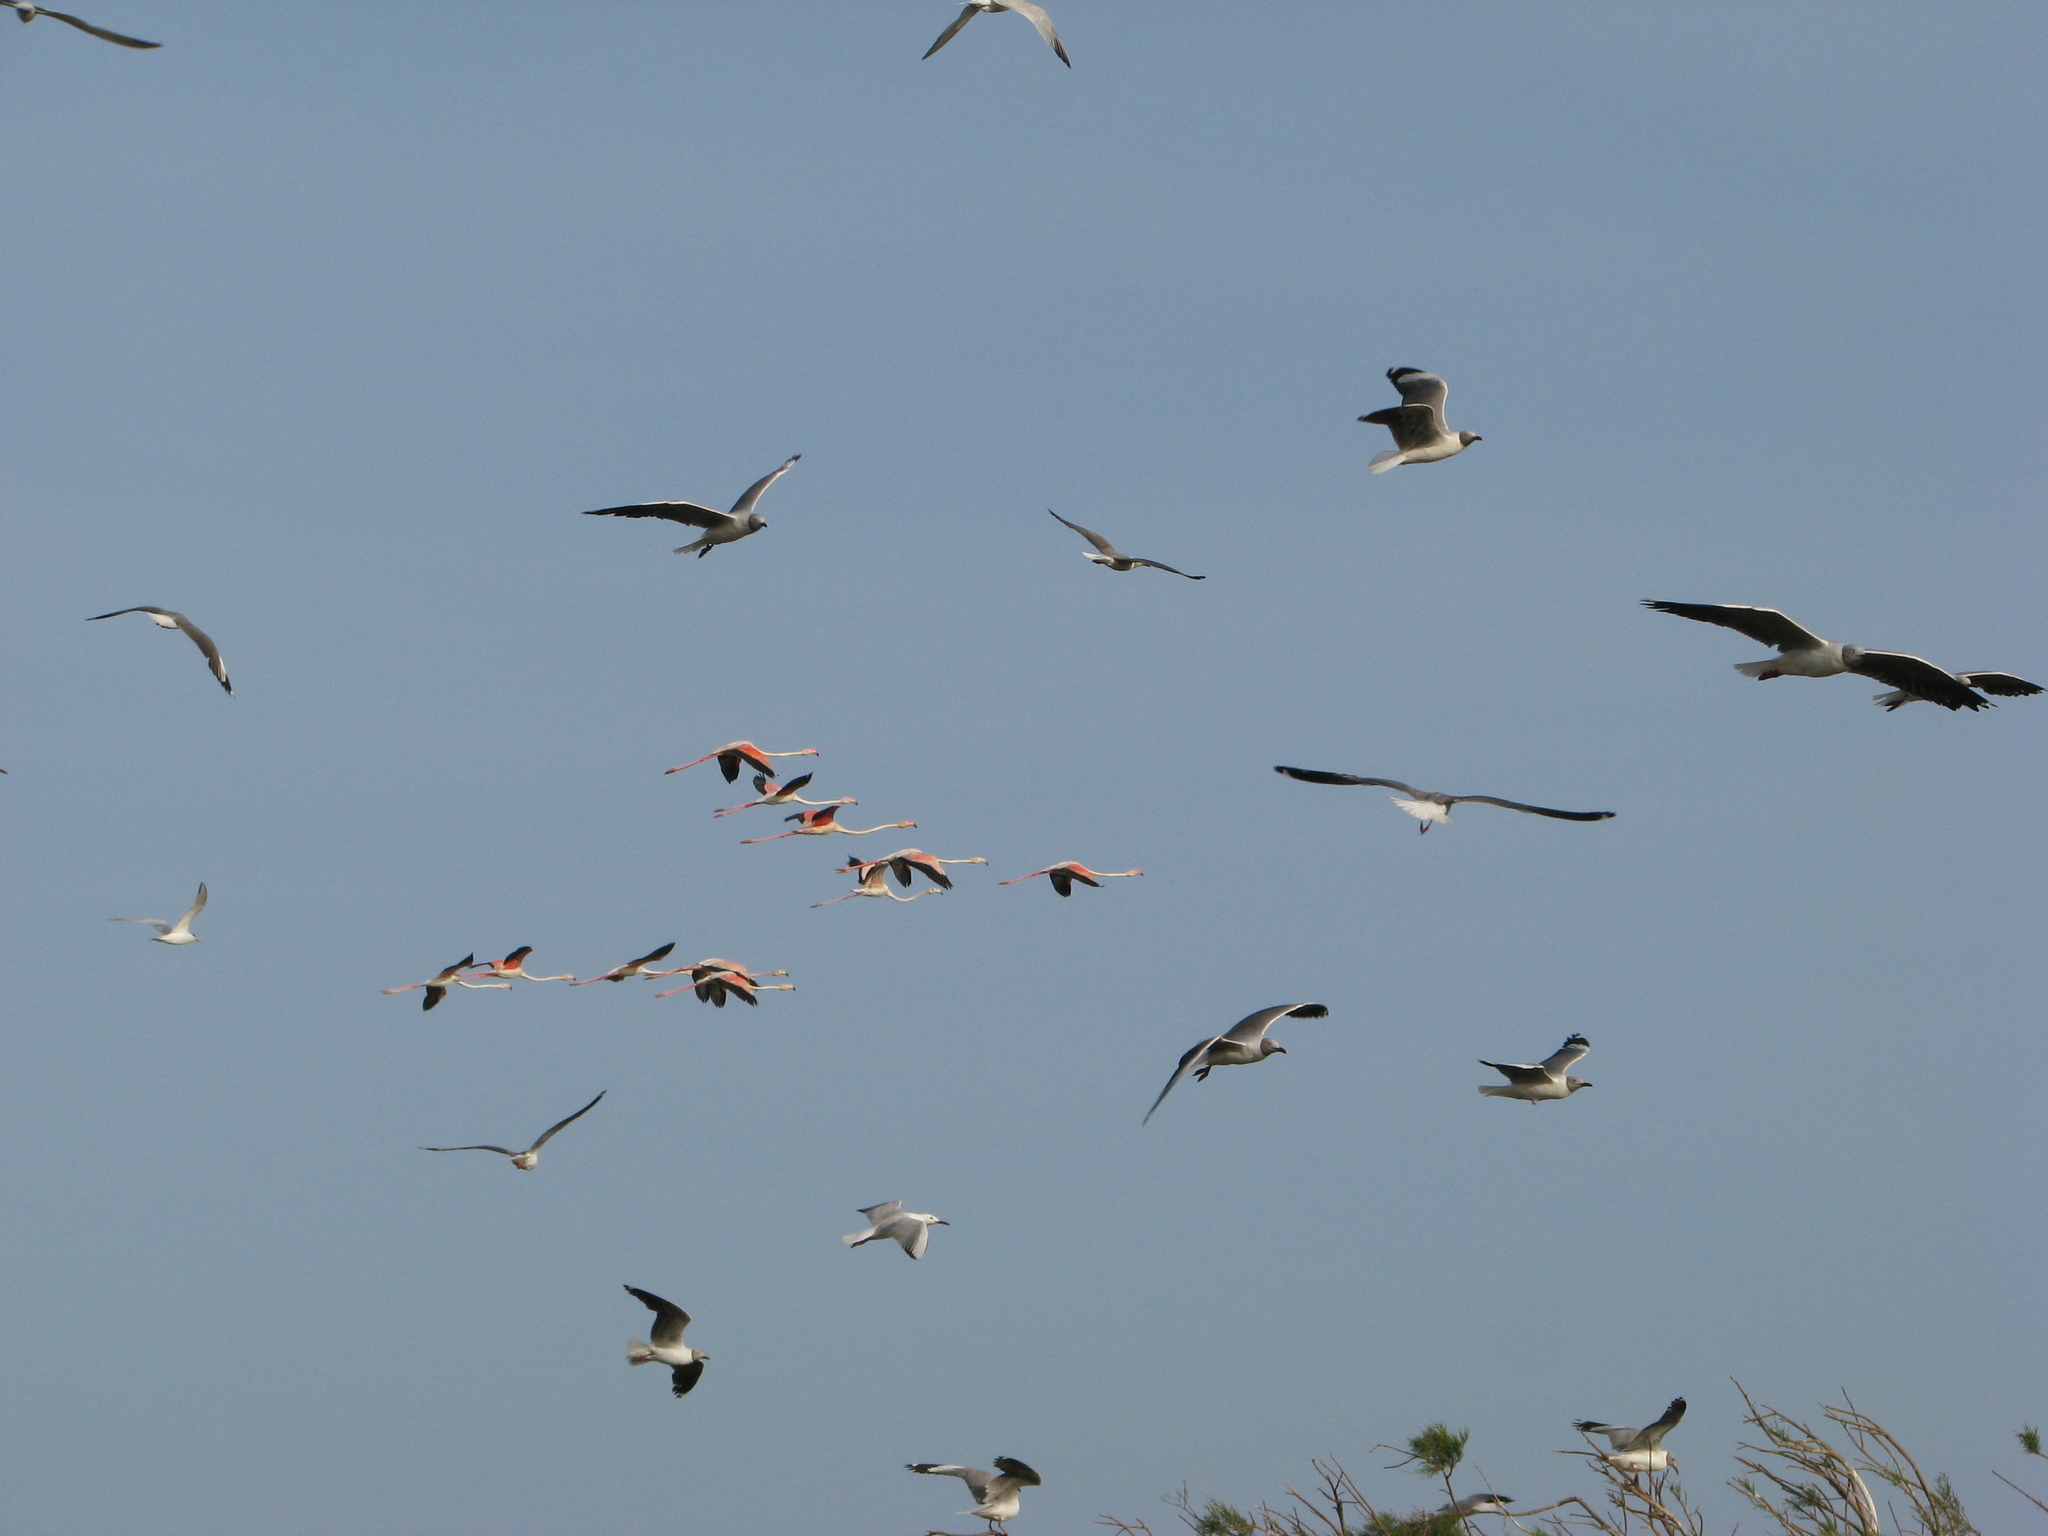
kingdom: Animalia
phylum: Chordata
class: Aves
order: Phoenicopteriformes
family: Phoenicopteridae
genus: Phoenicopterus
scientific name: Phoenicopterus roseus
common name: Greater flamingo
